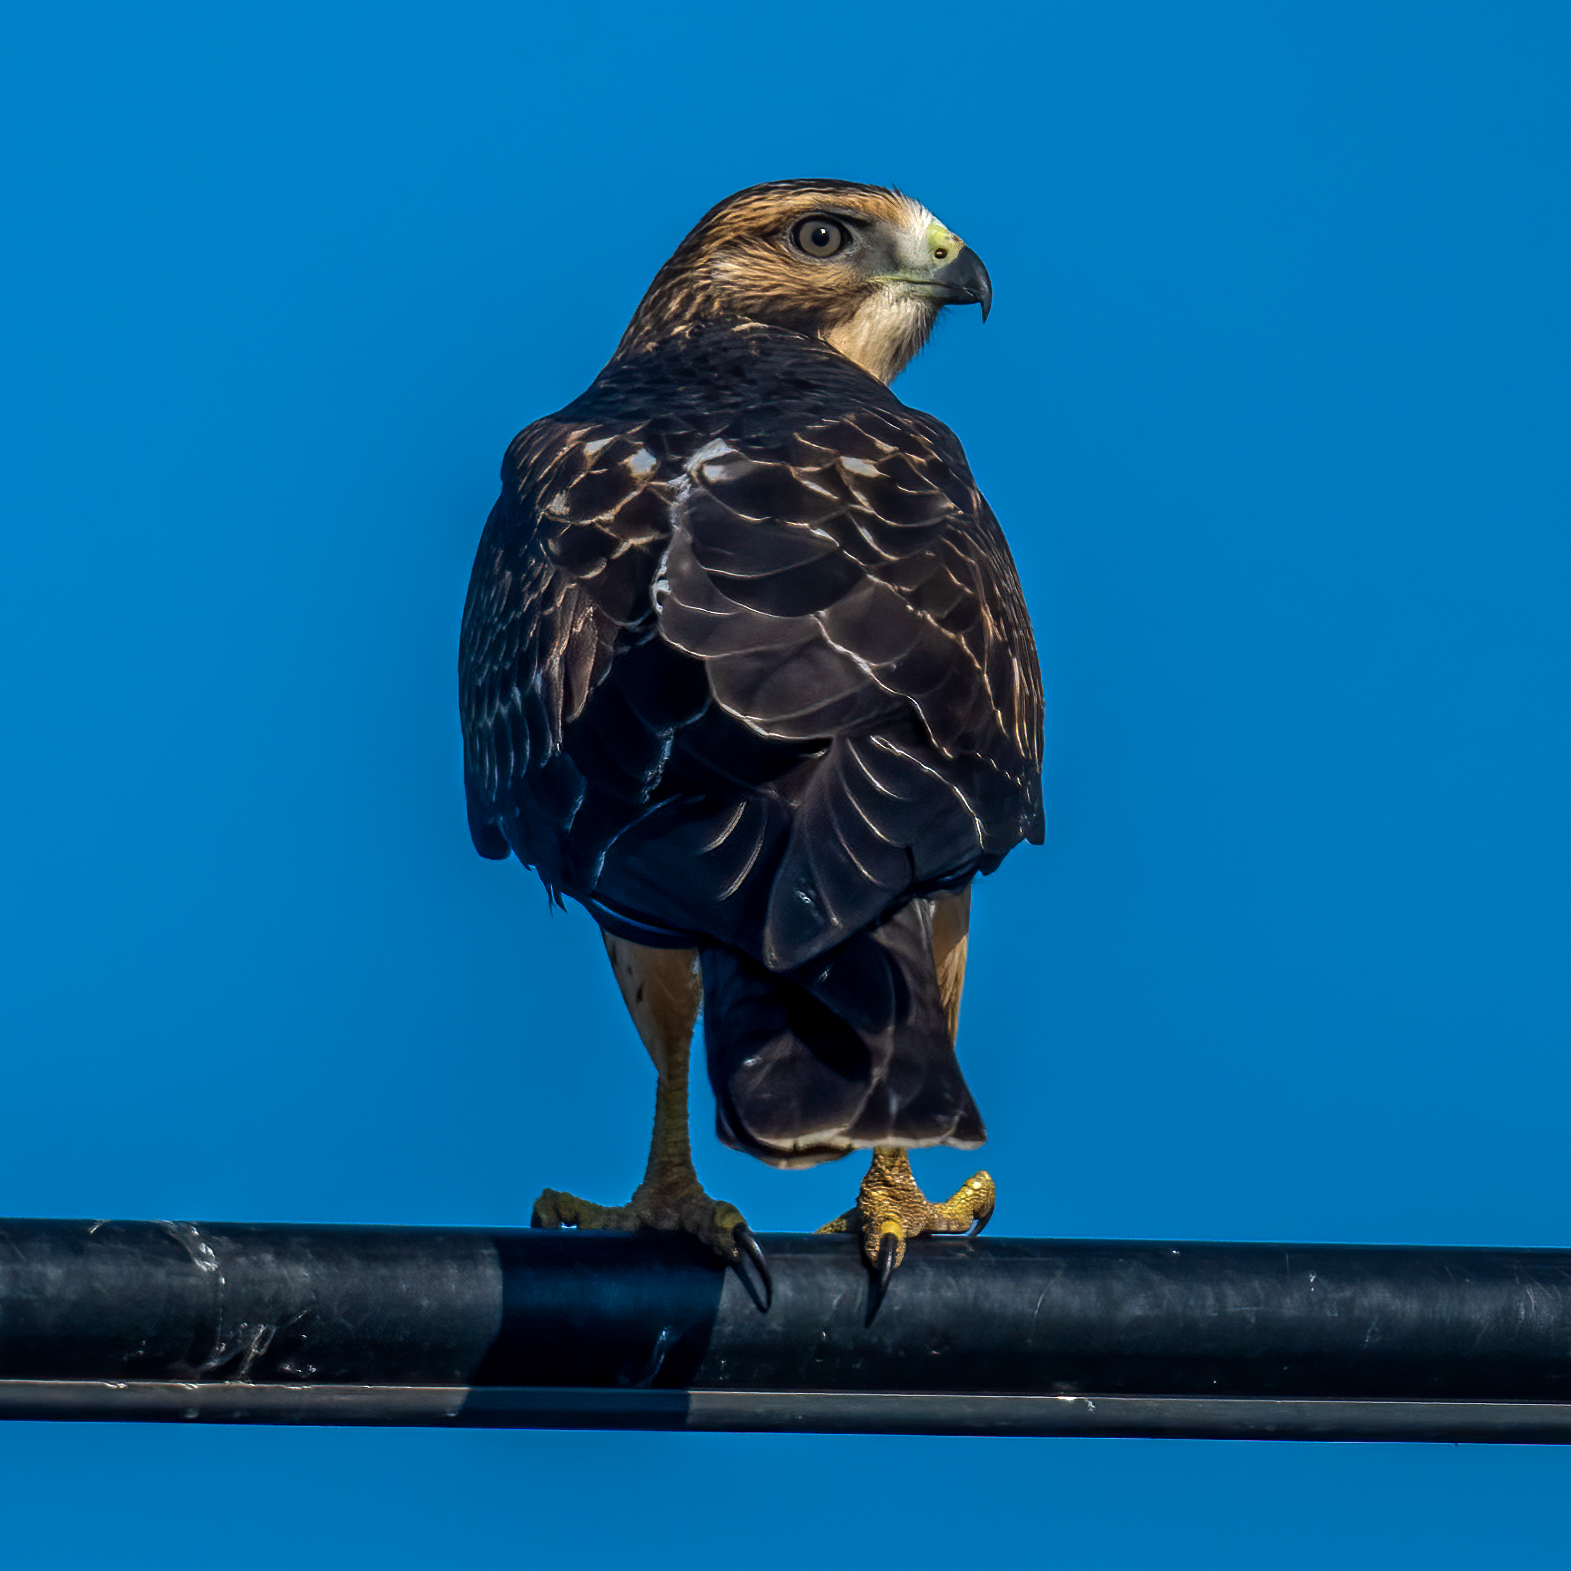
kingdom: Animalia
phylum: Chordata
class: Aves
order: Accipitriformes
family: Accipitridae
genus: Buteo
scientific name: Buteo swainsoni
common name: Swainson's hawk
